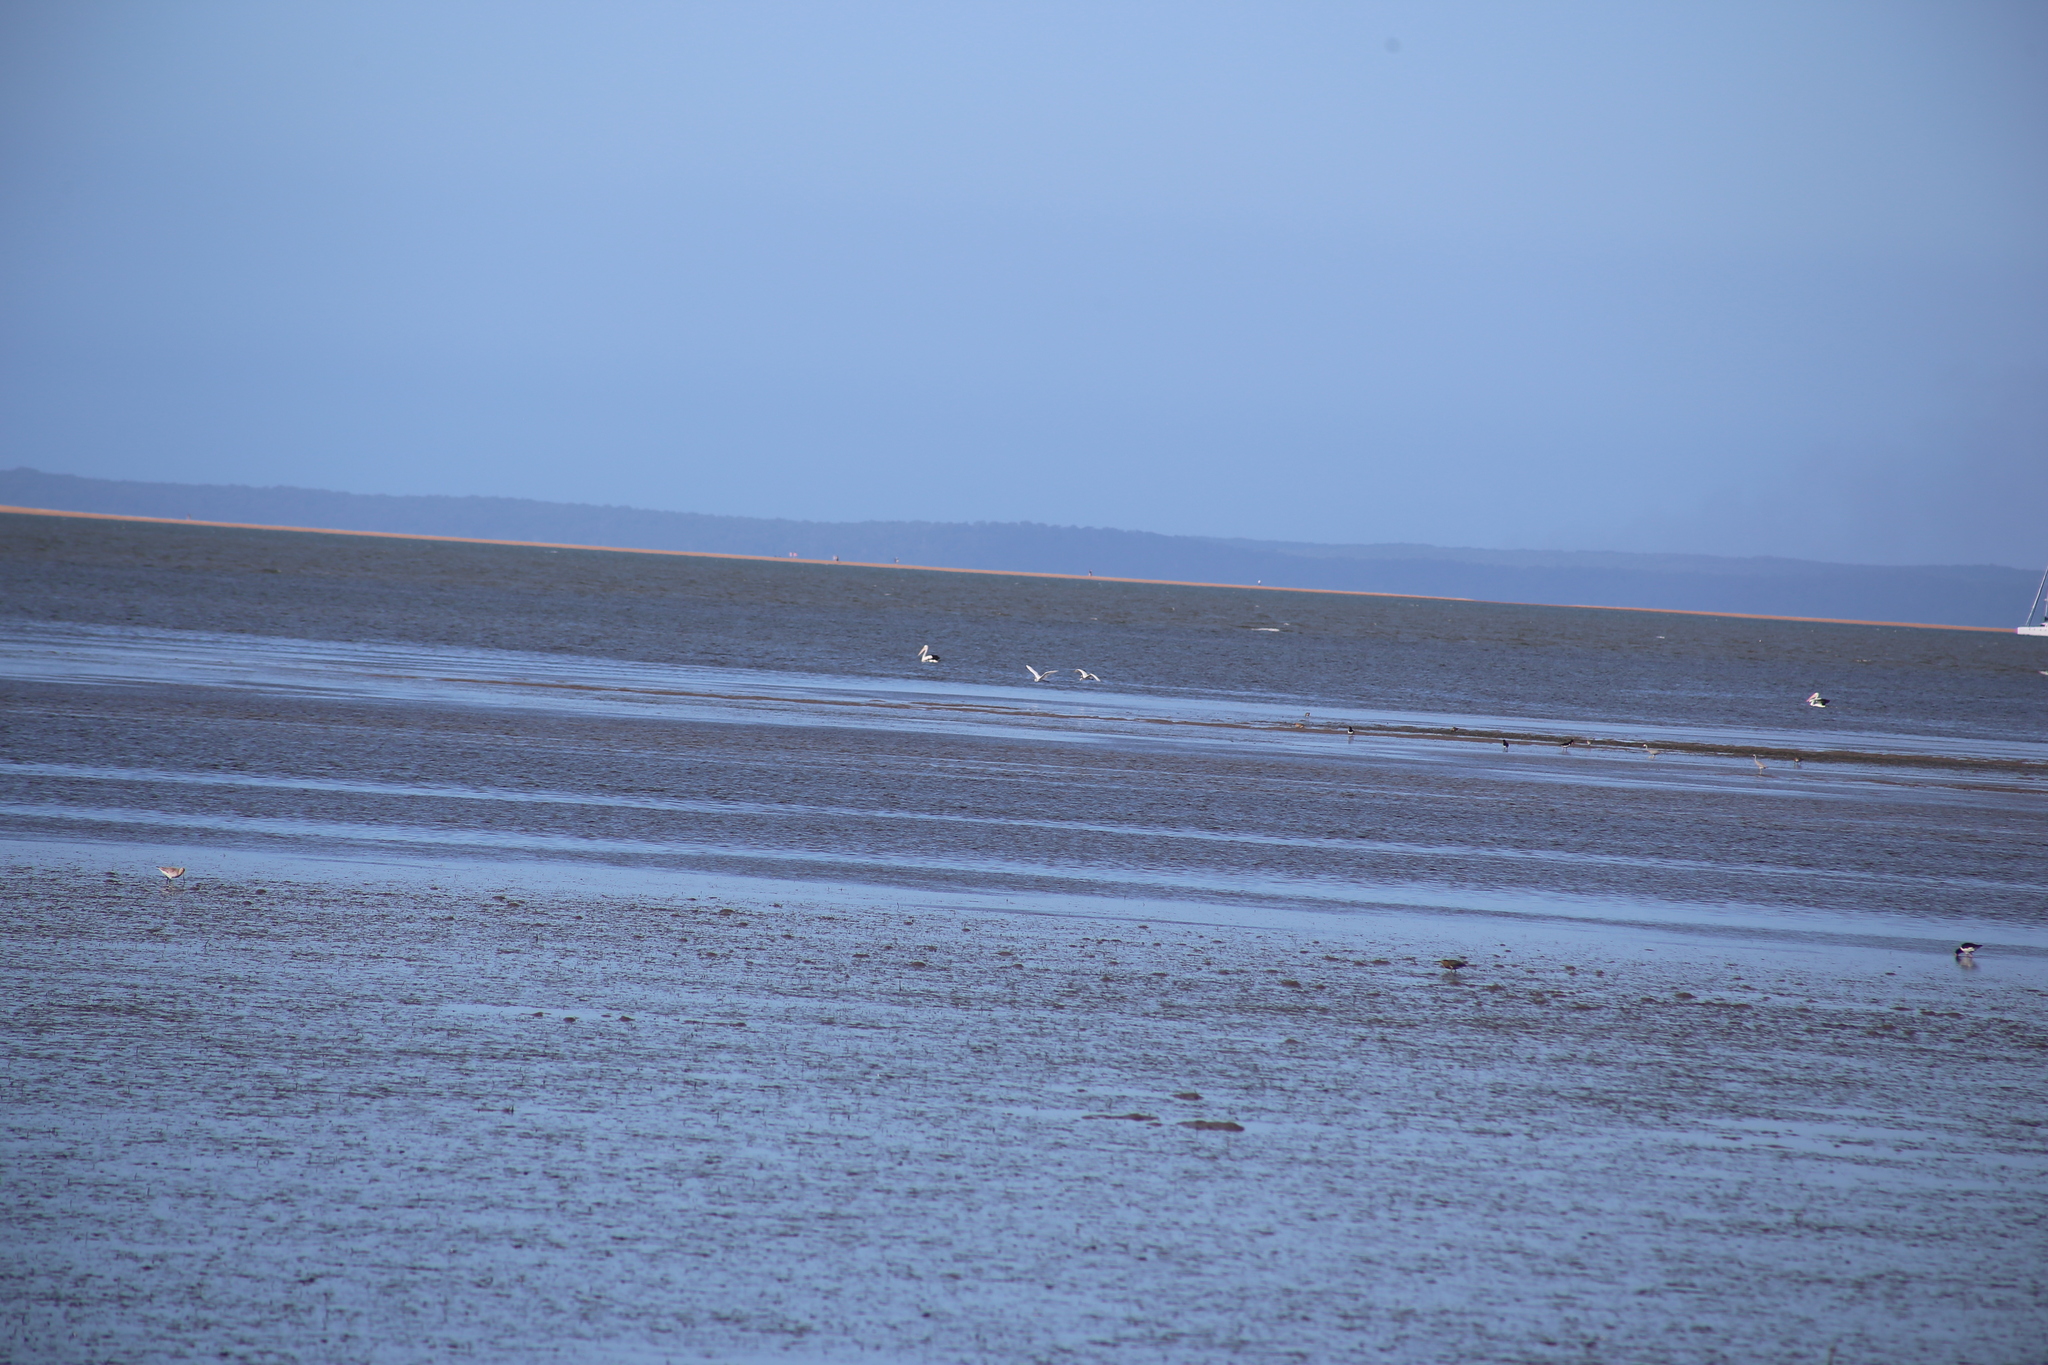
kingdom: Animalia
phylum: Chordata
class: Aves
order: Pelecaniformes
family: Pelecanidae
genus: Pelecanus
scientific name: Pelecanus conspicillatus
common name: Australian pelican
